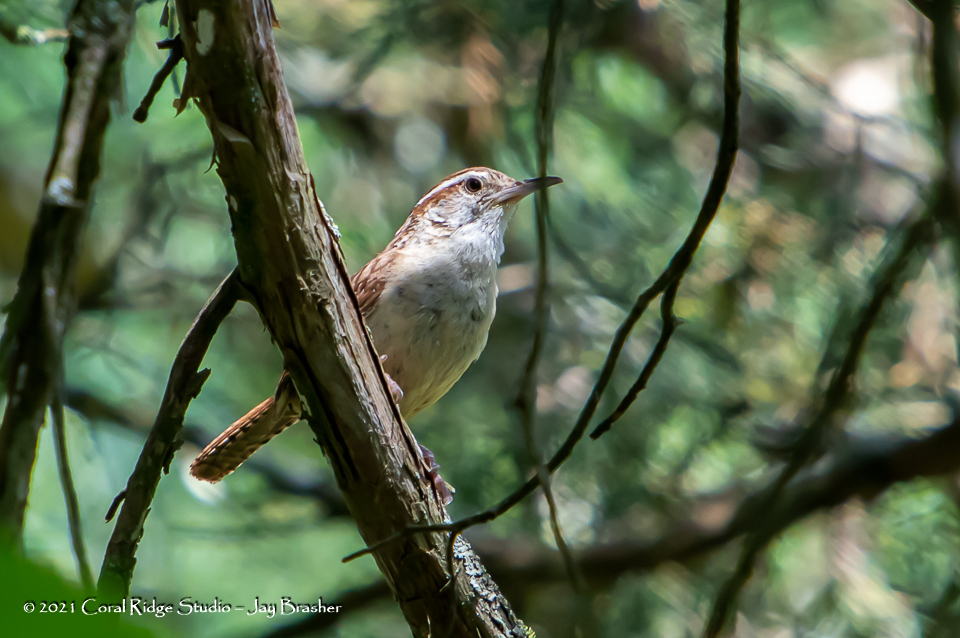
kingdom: Animalia
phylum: Chordata
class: Aves
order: Passeriformes
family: Troglodytidae
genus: Thryothorus
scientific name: Thryothorus ludovicianus
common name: Carolina wren
